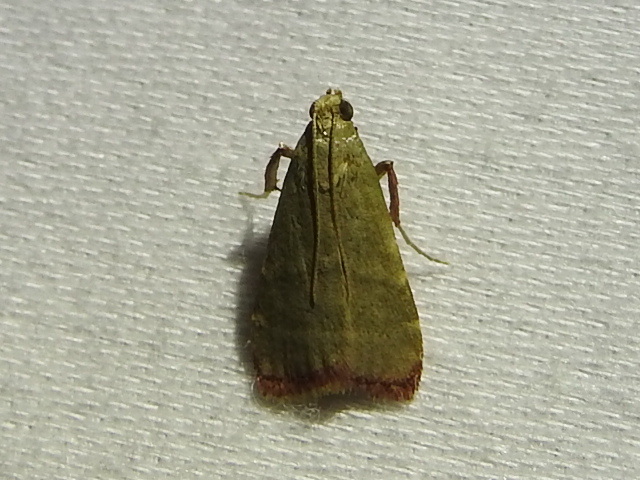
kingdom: Animalia
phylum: Arthropoda
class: Insecta
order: Lepidoptera
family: Pyralidae
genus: Arta
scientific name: Arta olivalis
